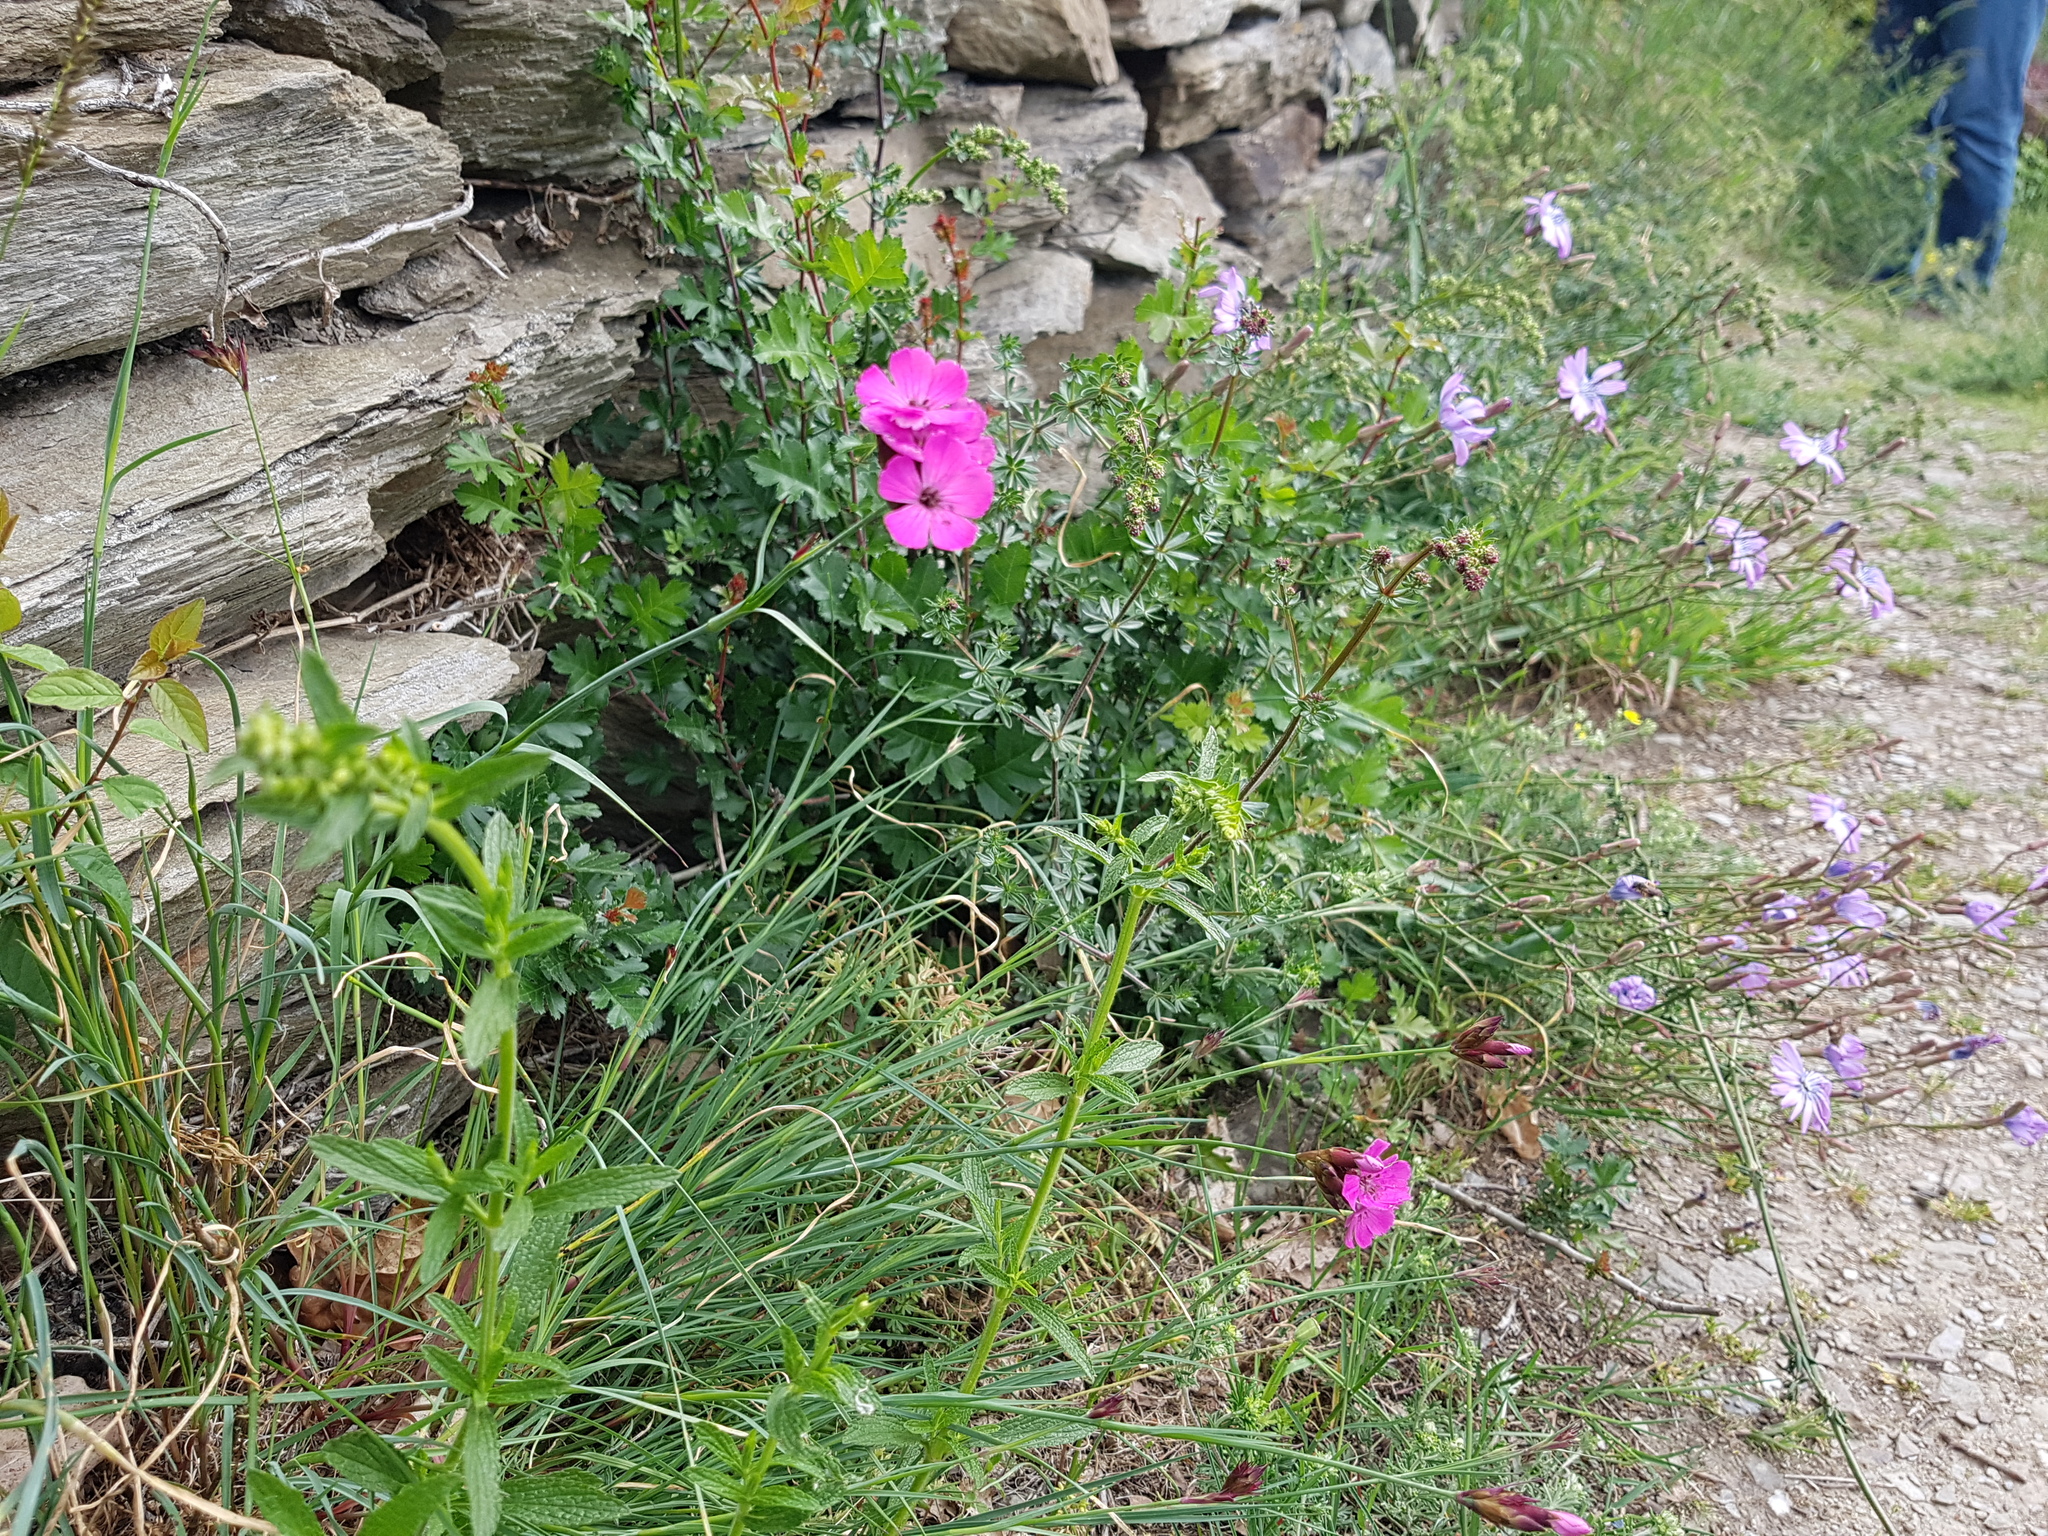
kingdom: Plantae
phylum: Tracheophyta
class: Magnoliopsida
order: Caryophyllales
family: Caryophyllaceae
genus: Dianthus
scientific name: Dianthus carthusianorum
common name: Carthusian pink
